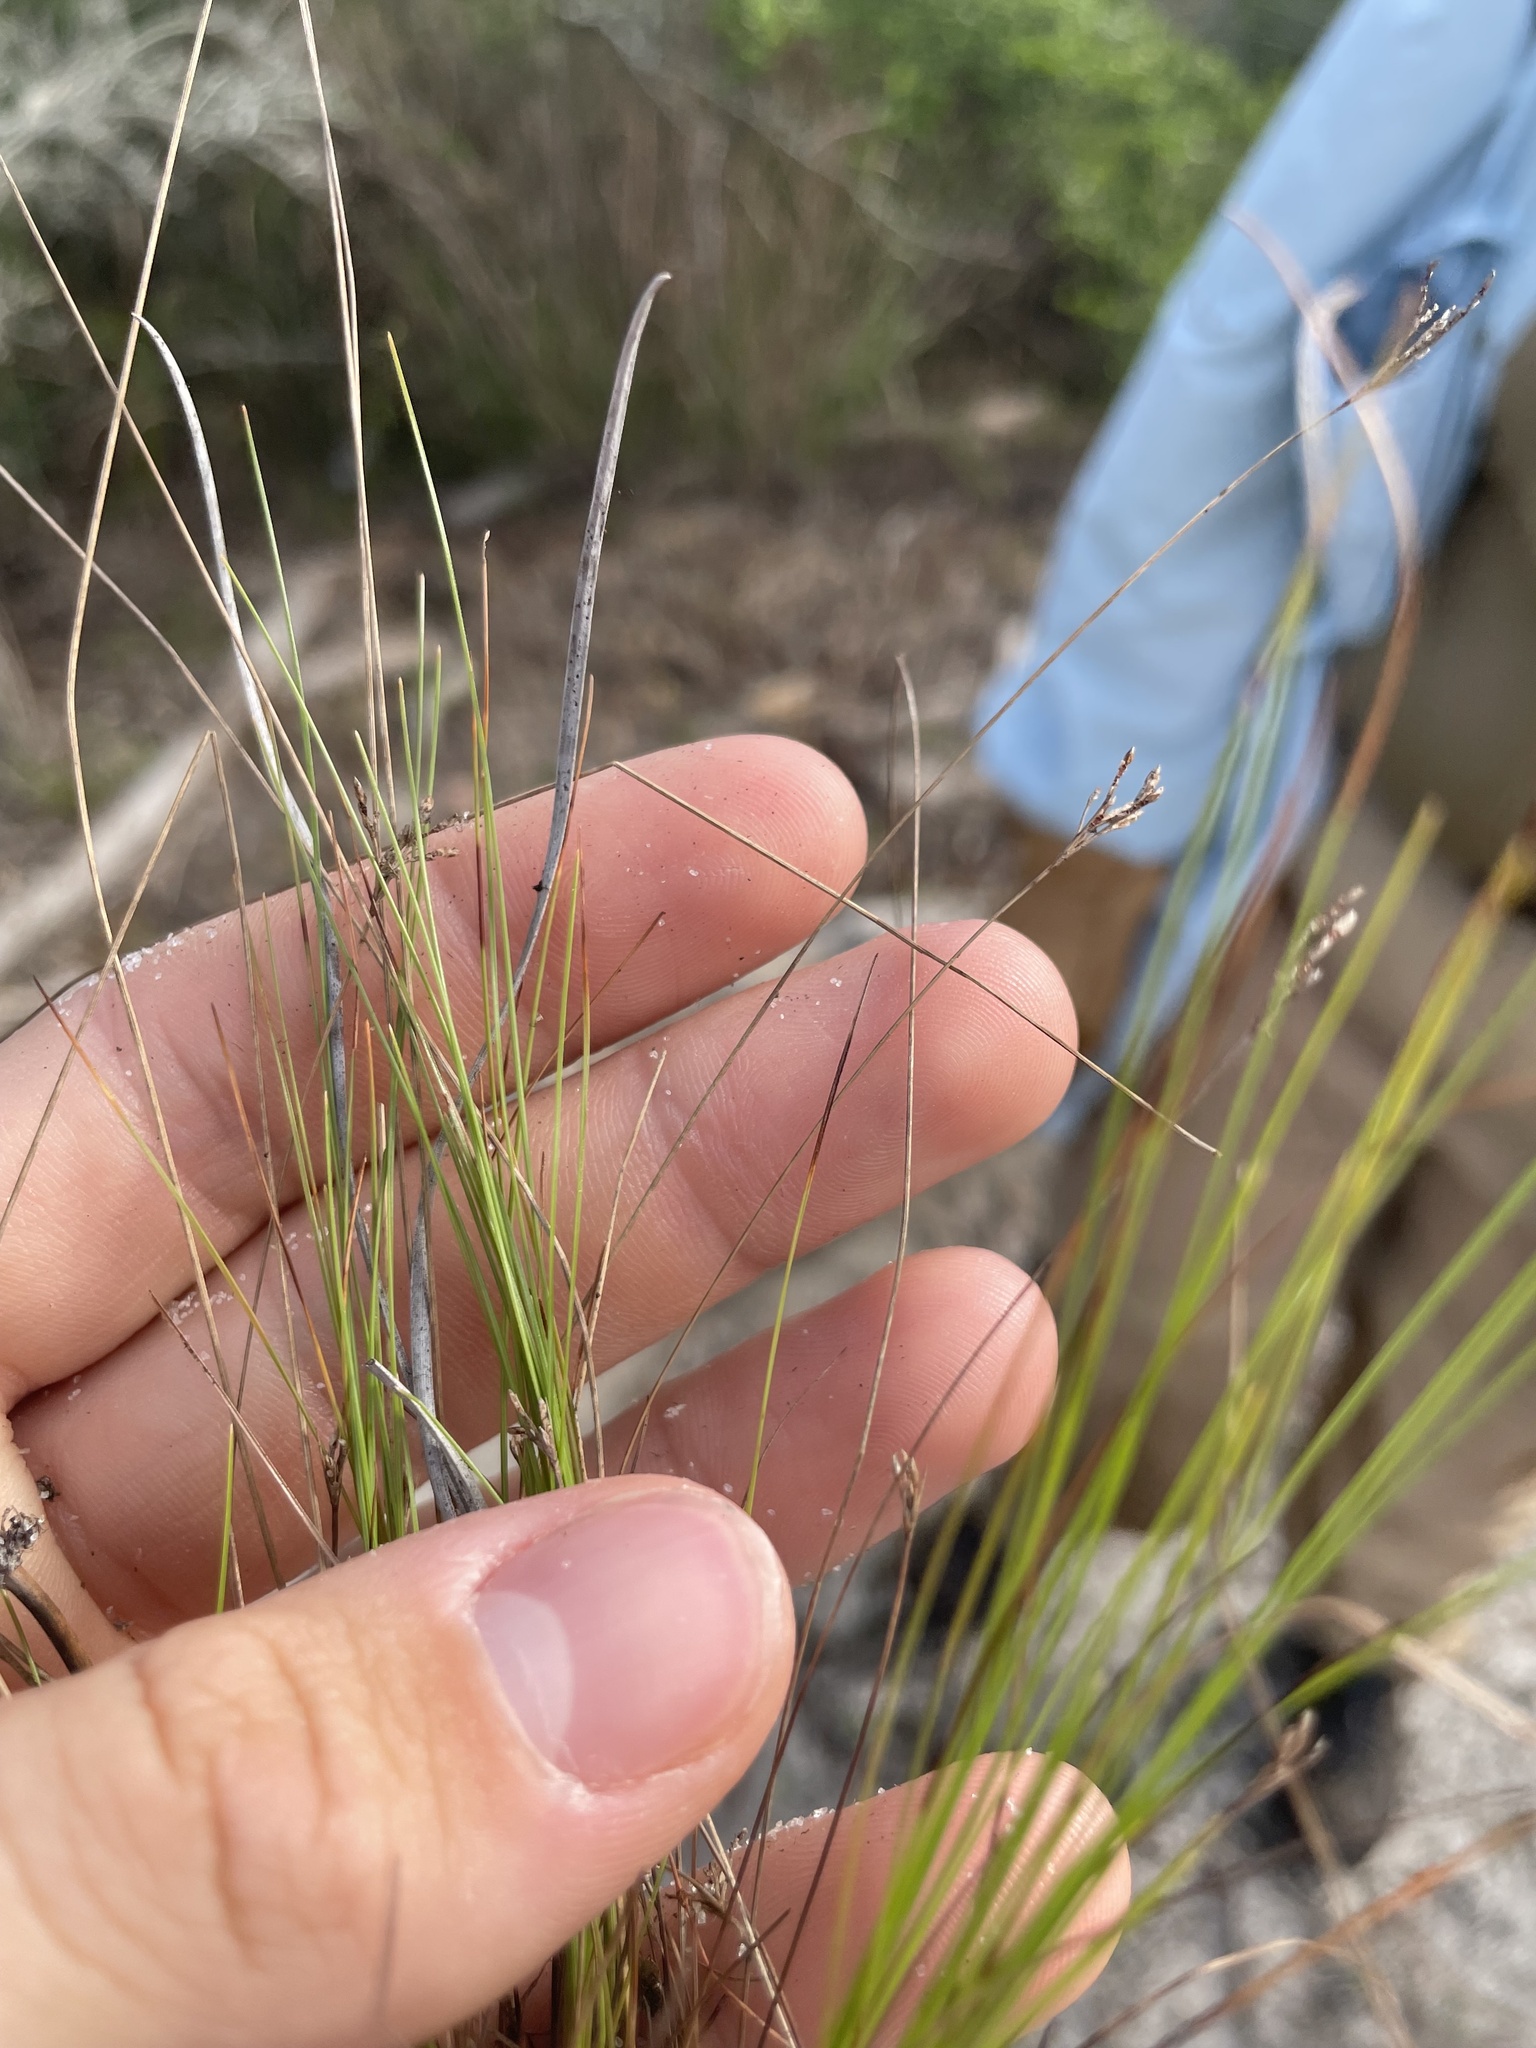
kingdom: Plantae
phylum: Tracheophyta
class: Liliopsida
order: Poales
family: Cyperaceae
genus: Bulbostylis
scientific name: Bulbostylis ciliatifolia
